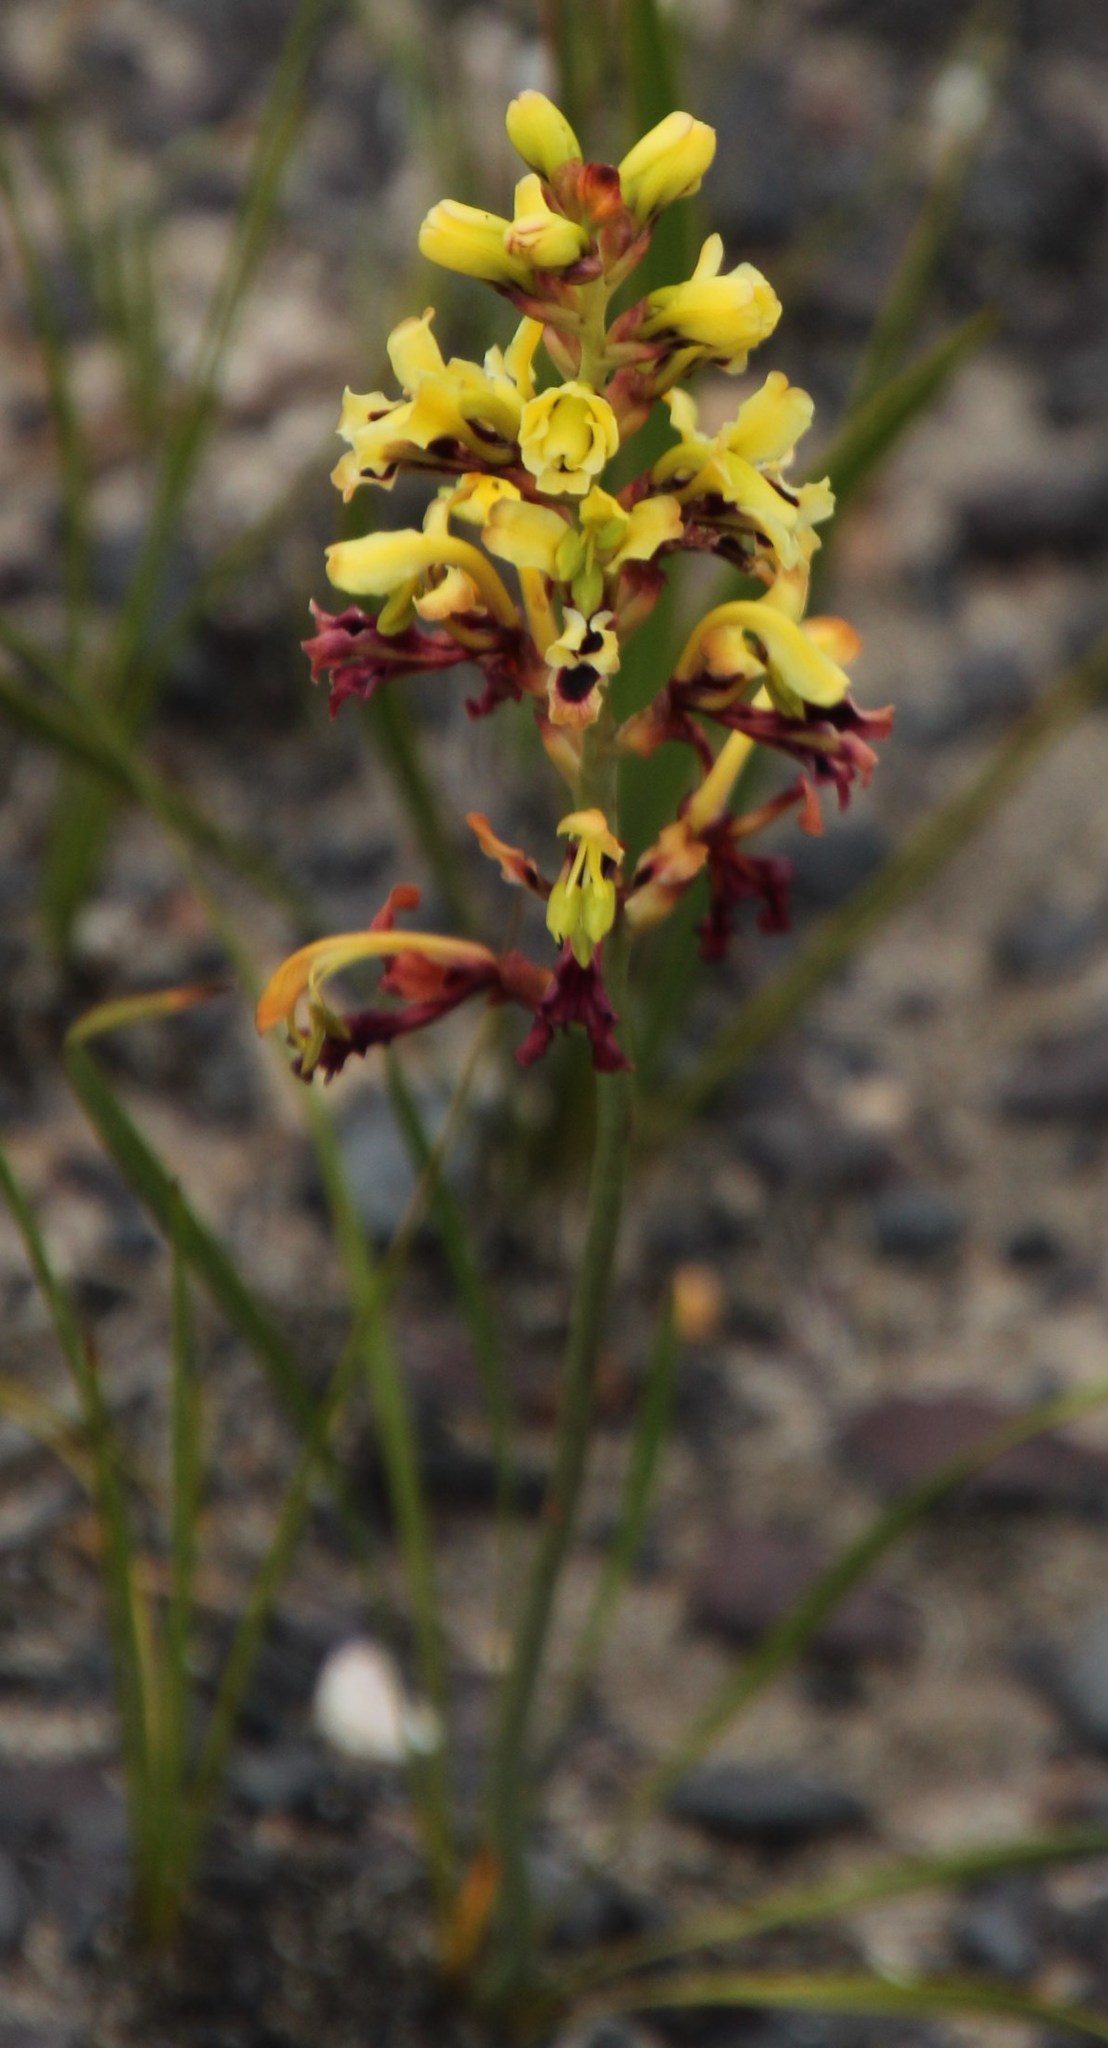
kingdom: Plantae
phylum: Tracheophyta
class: Liliopsida
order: Asparagales
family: Iridaceae
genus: Tritoniopsis
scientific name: Tritoniopsis parviflora
